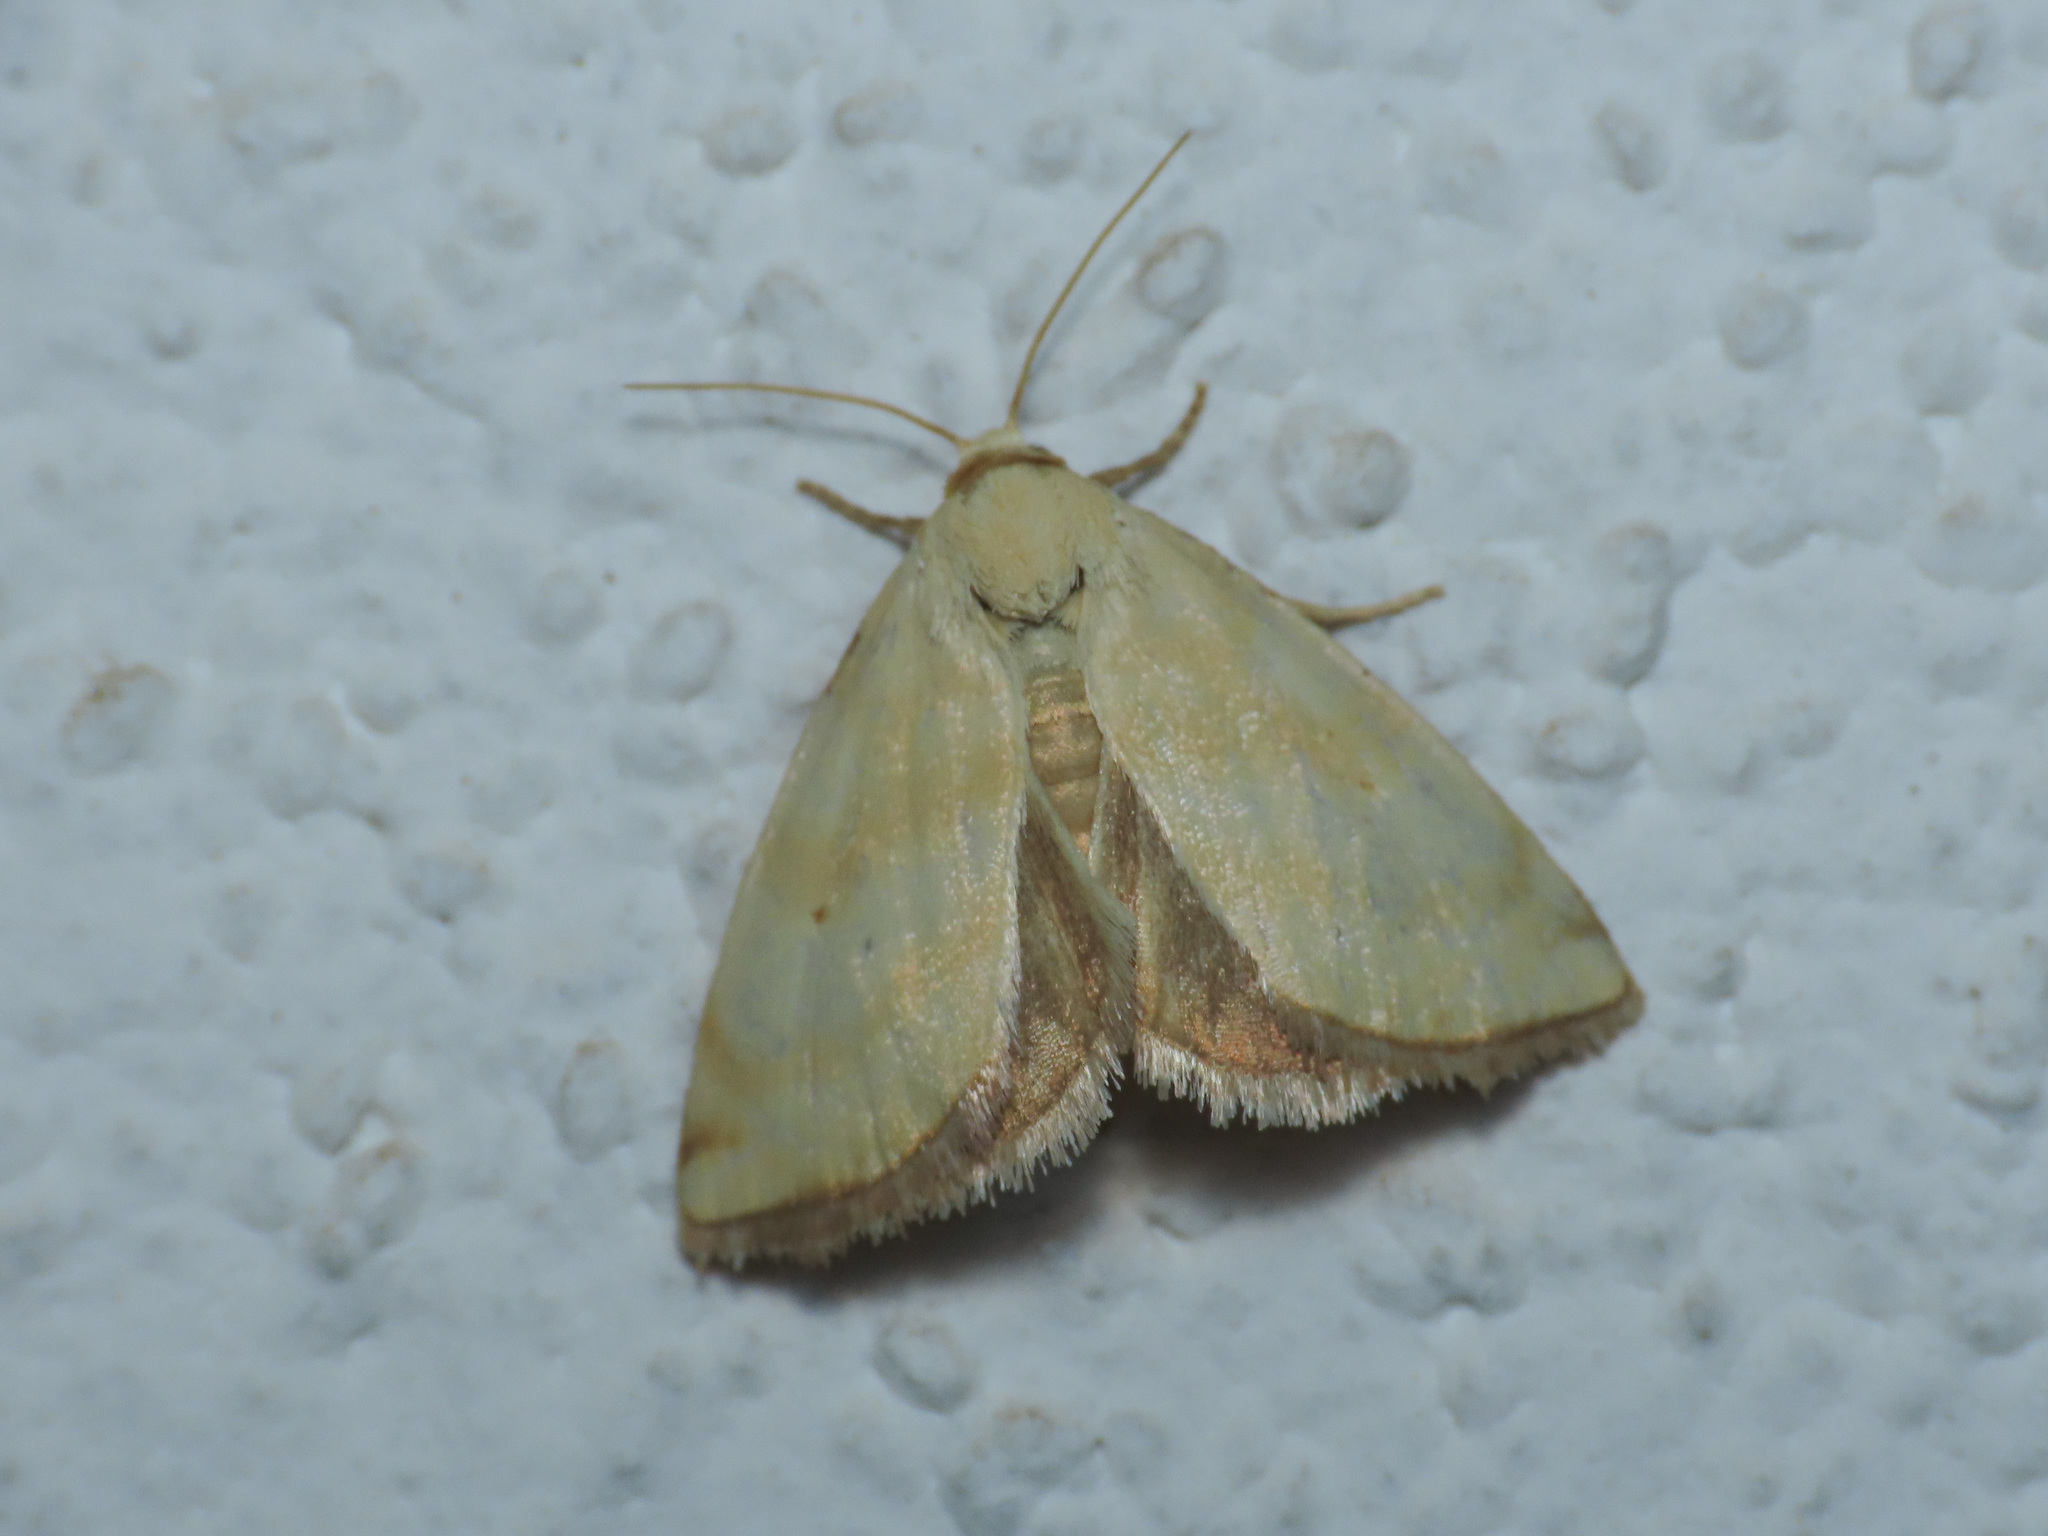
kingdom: Animalia
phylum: Arthropoda
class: Insecta
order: Lepidoptera
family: Noctuidae
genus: Aegle
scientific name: Aegle semicana
